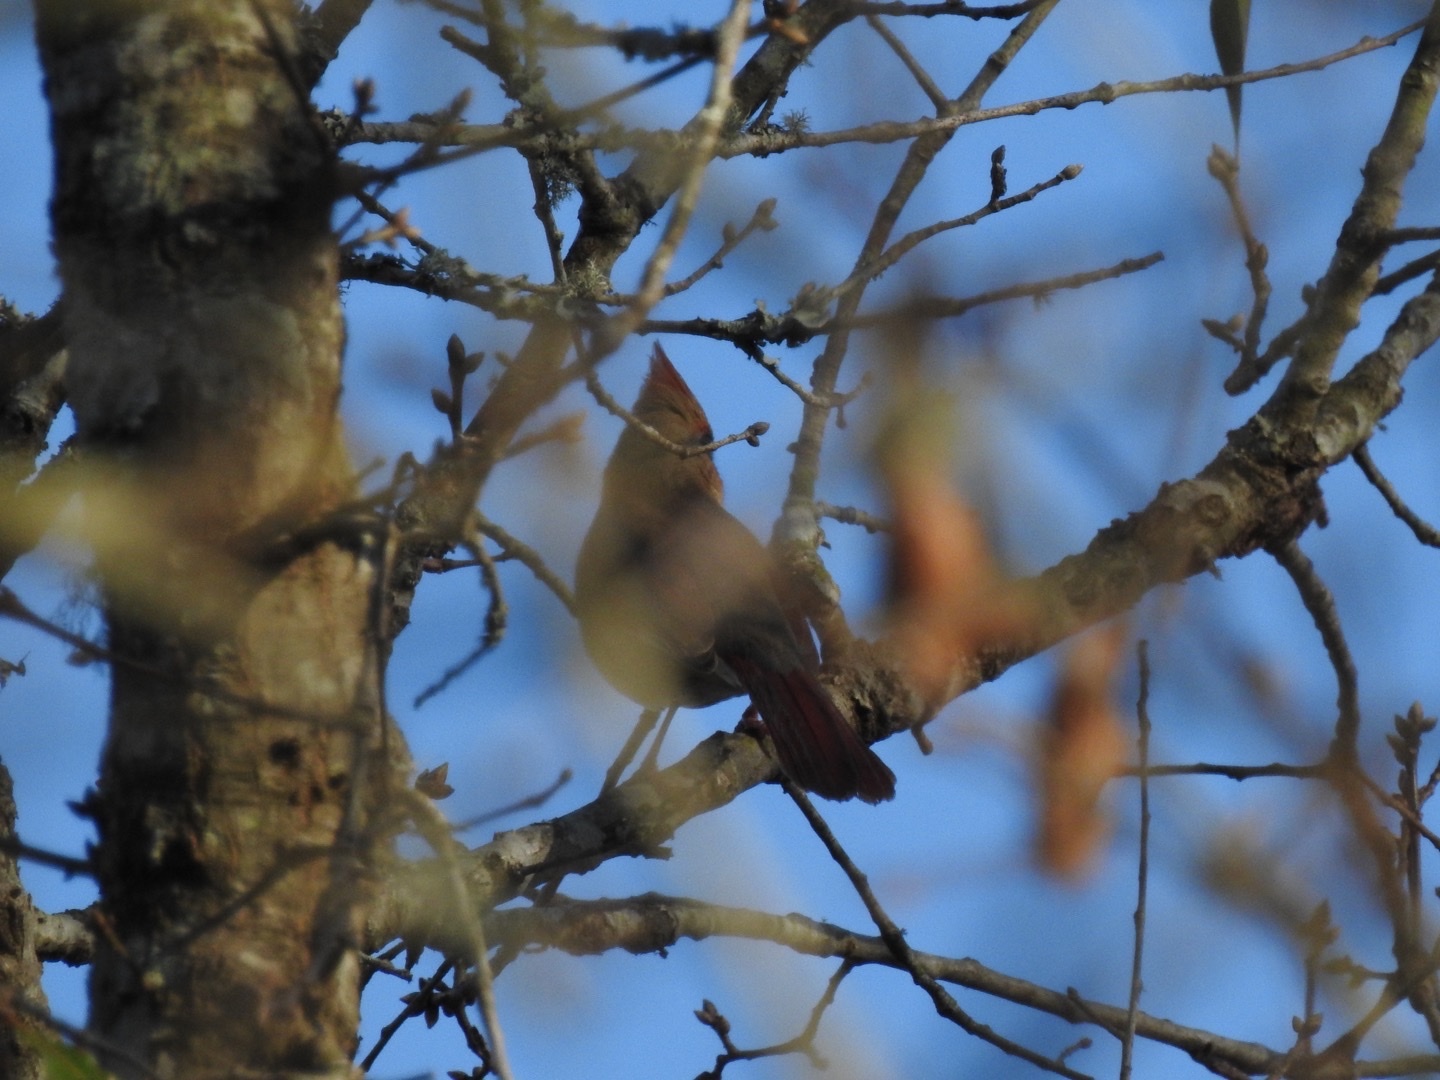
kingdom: Animalia
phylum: Chordata
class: Aves
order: Passeriformes
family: Cardinalidae
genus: Cardinalis
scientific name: Cardinalis cardinalis
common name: Northern cardinal
